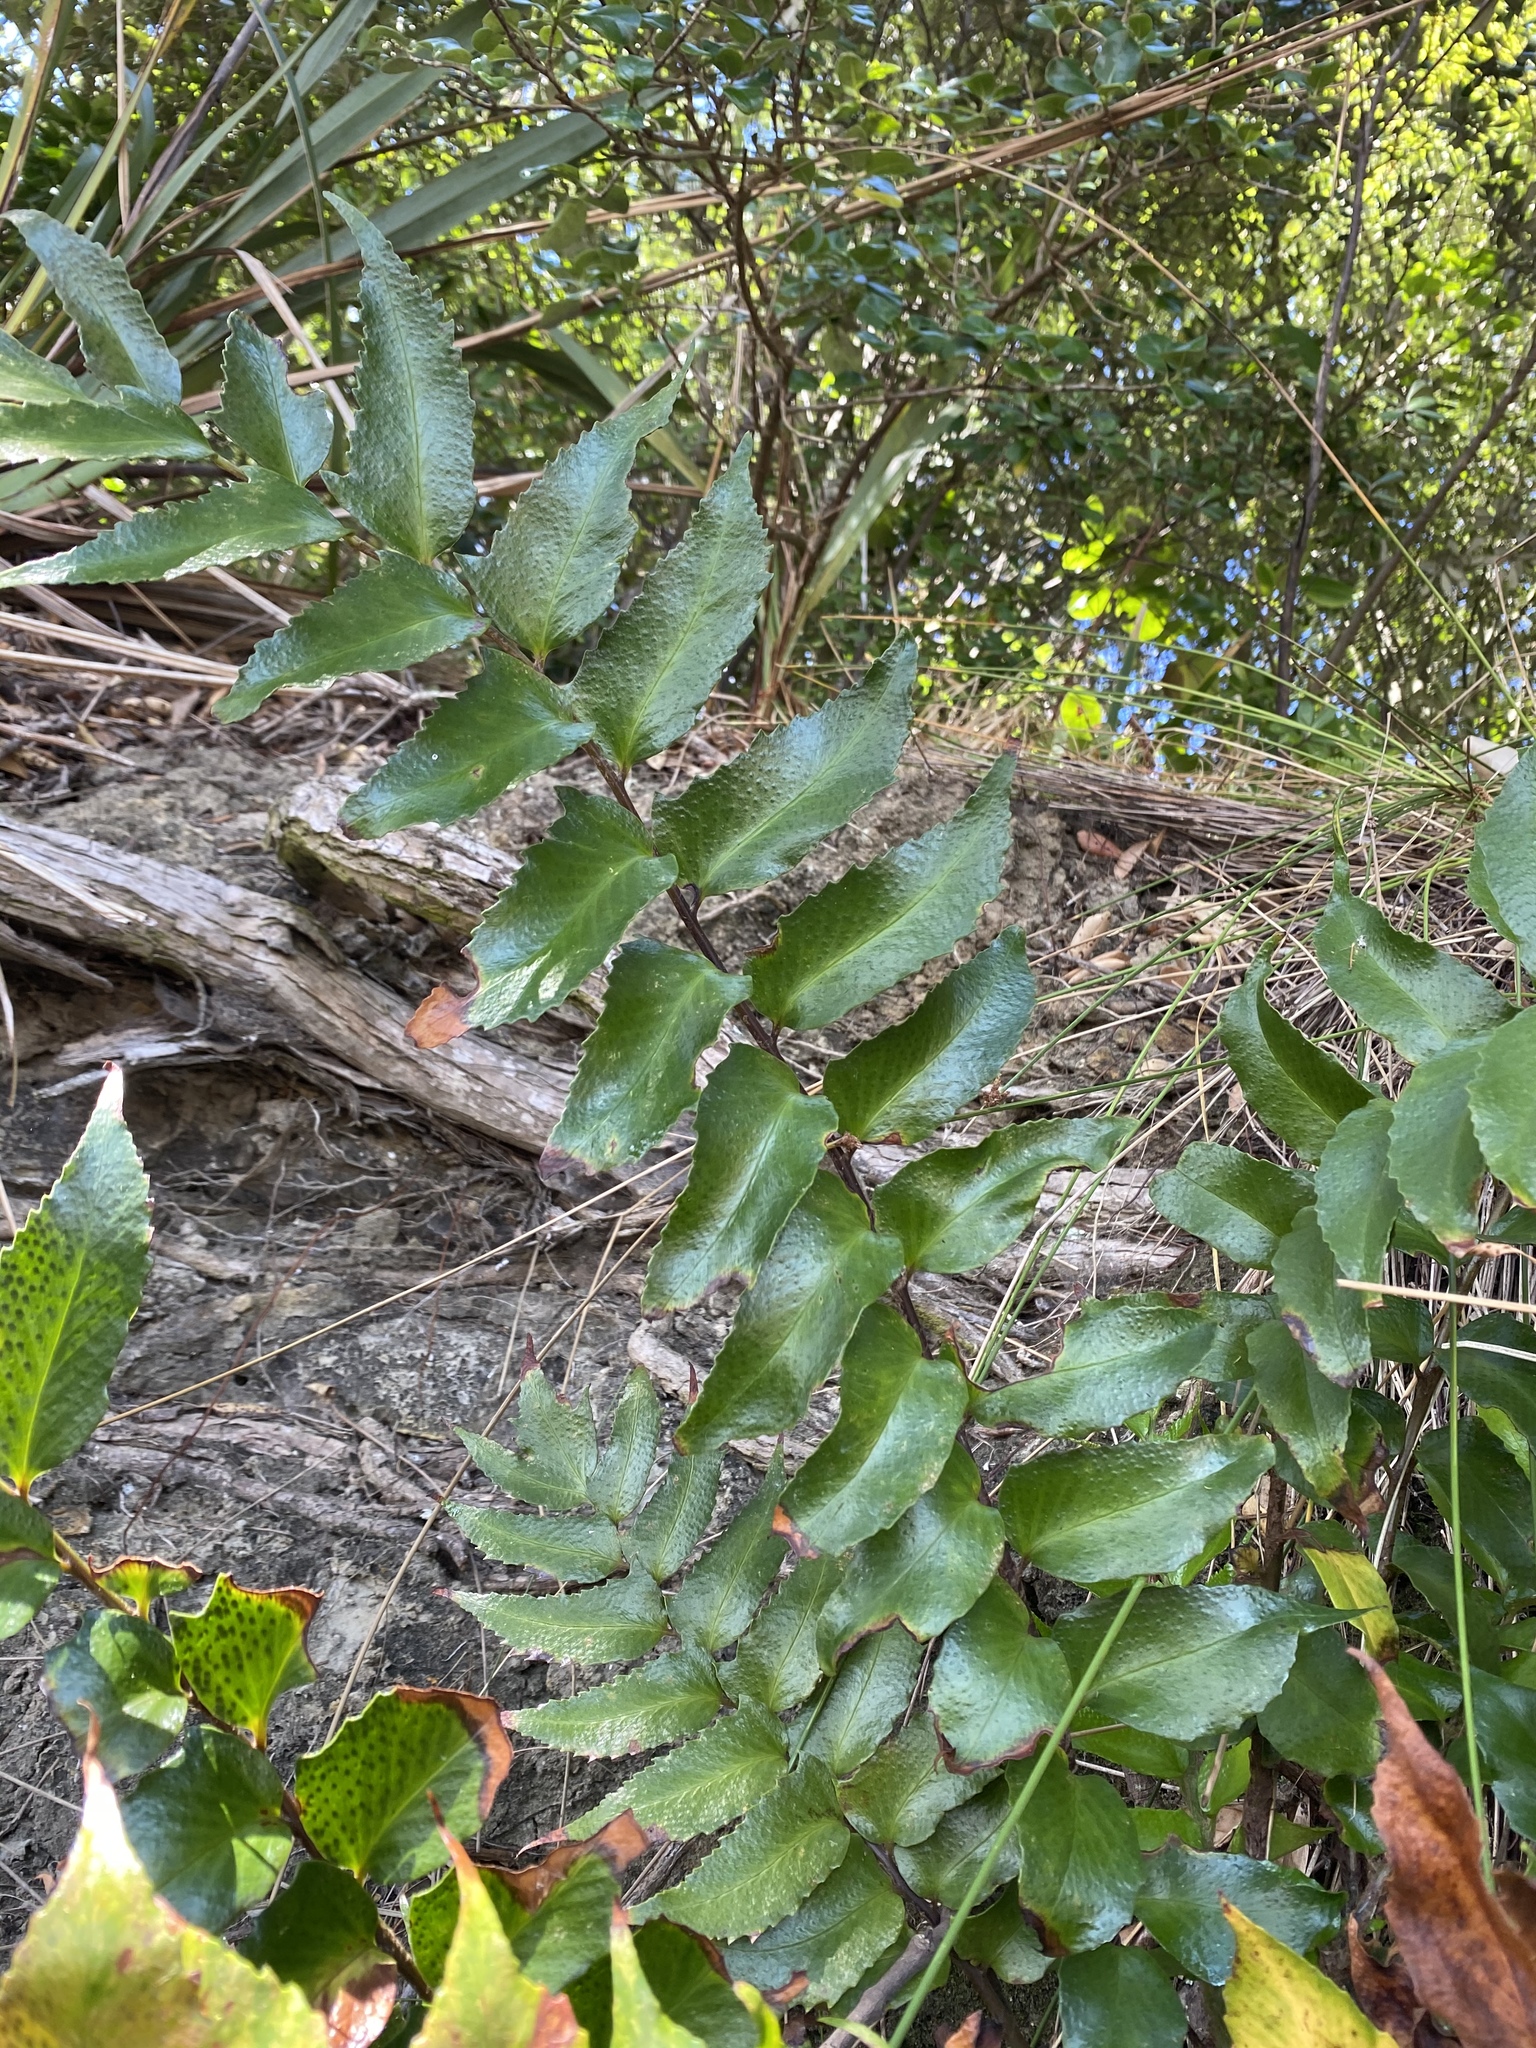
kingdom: Plantae
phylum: Tracheophyta
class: Polypodiopsida
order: Polypodiales
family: Dryopteridaceae
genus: Cyrtomium
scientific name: Cyrtomium falcatum
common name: House holly-fern
